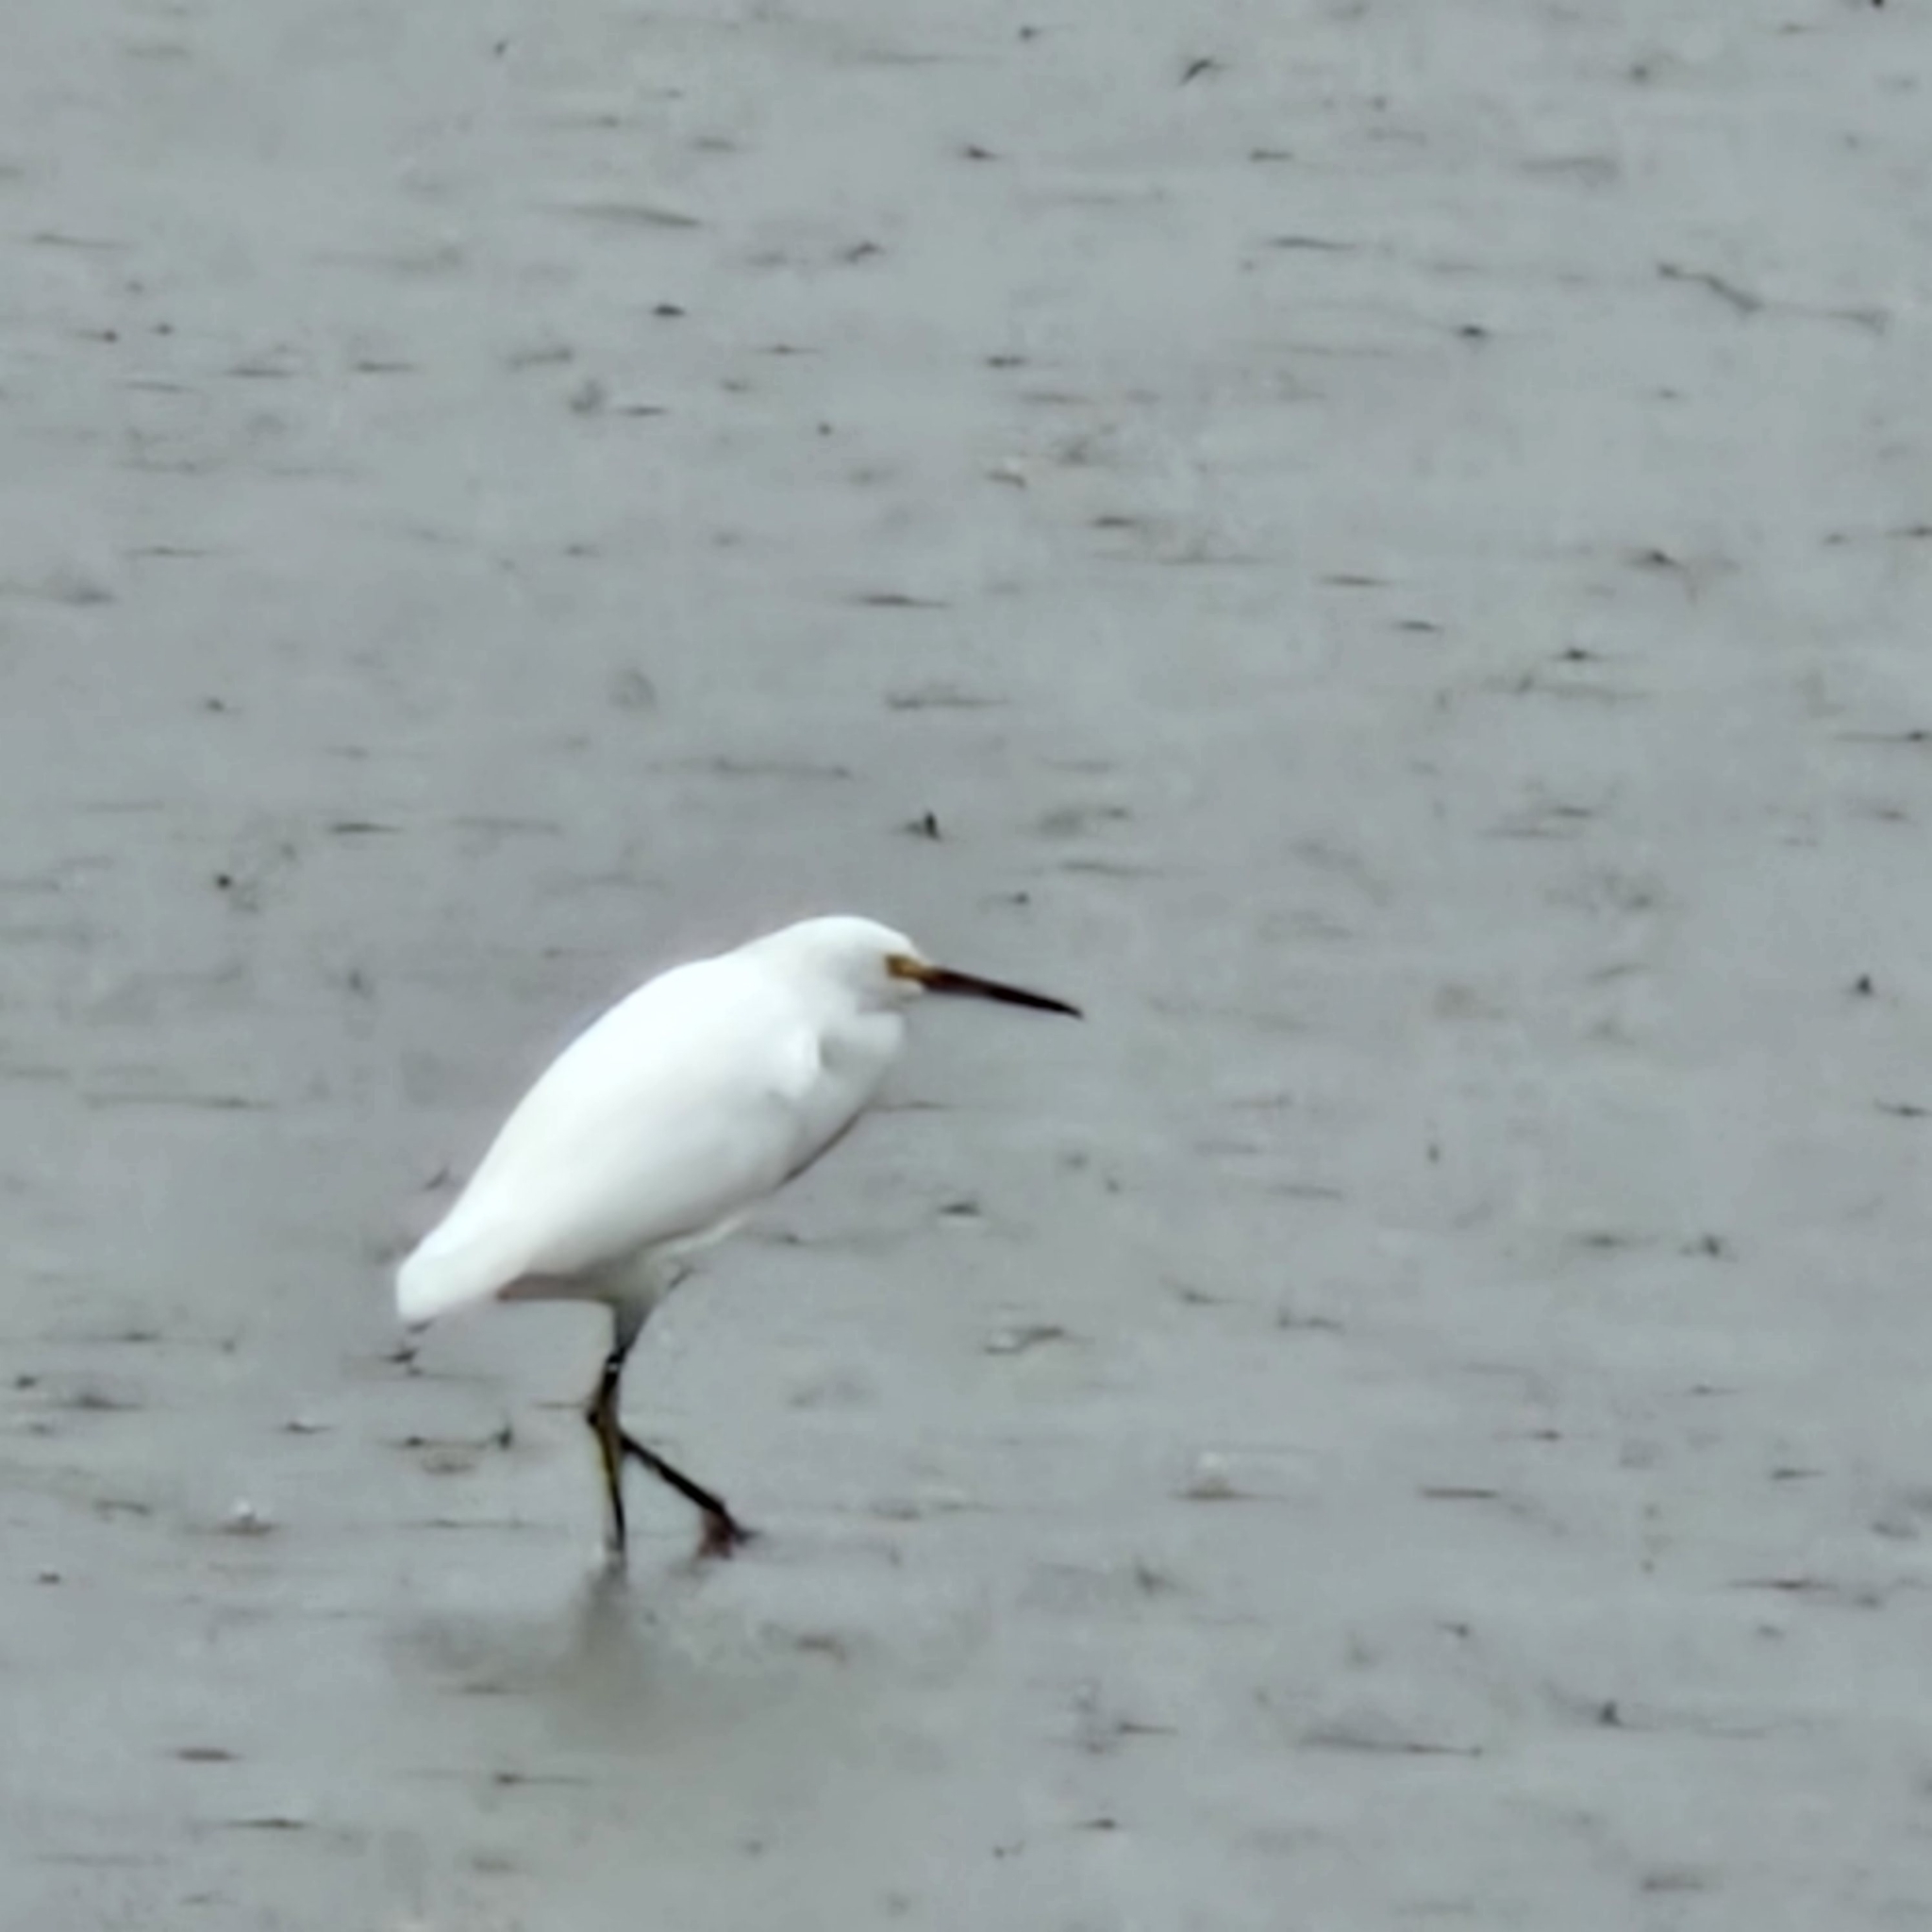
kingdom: Animalia
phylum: Chordata
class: Aves
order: Pelecaniformes
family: Ardeidae
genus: Egretta
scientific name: Egretta thula
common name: Snowy egret
